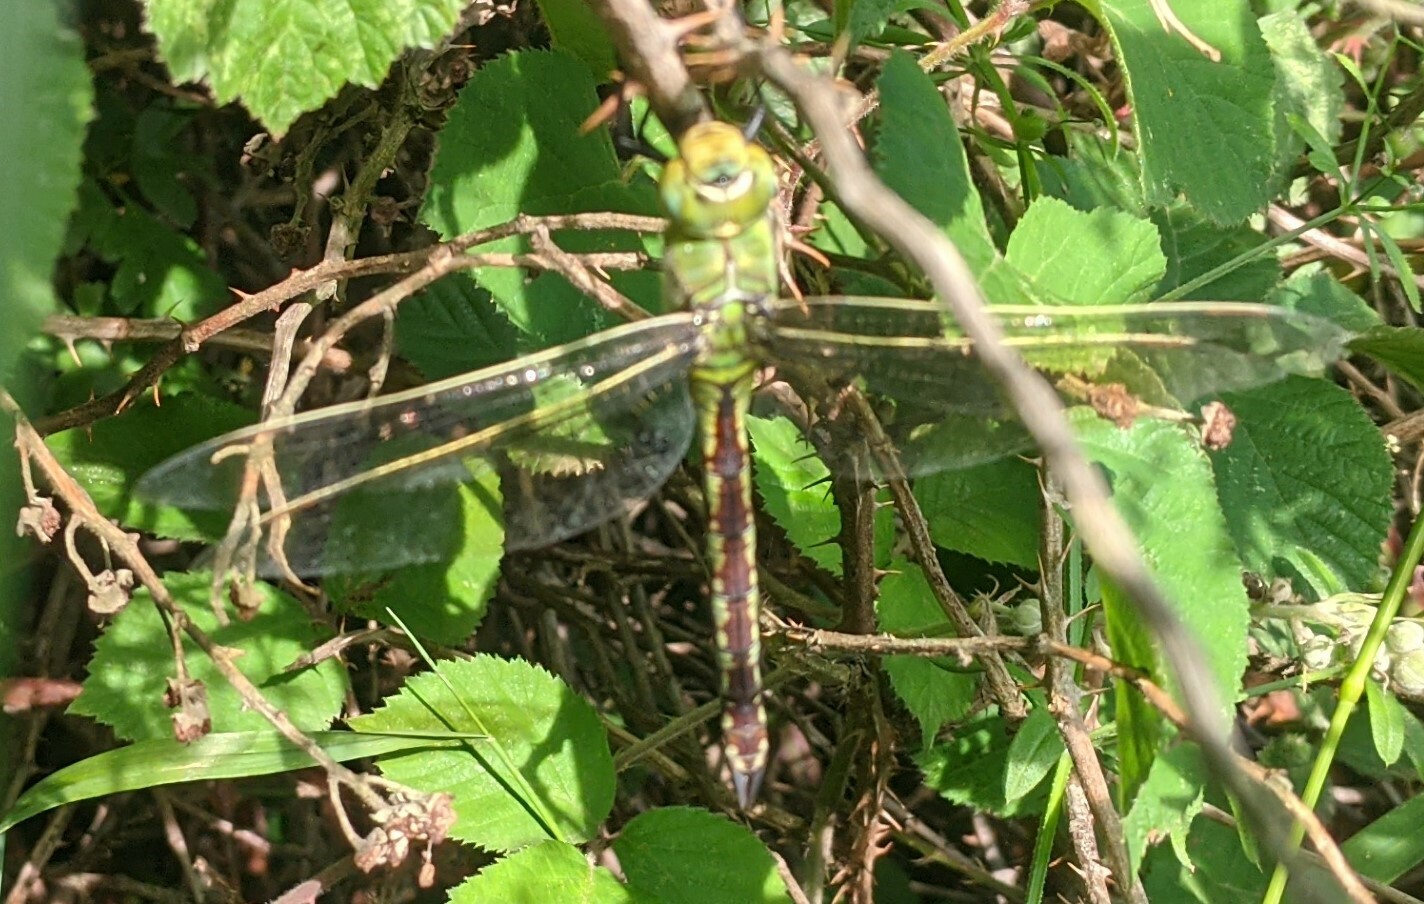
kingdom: Animalia
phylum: Arthropoda
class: Insecta
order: Odonata
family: Aeshnidae
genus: Anax
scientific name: Anax imperator
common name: Emperor dragonfly
